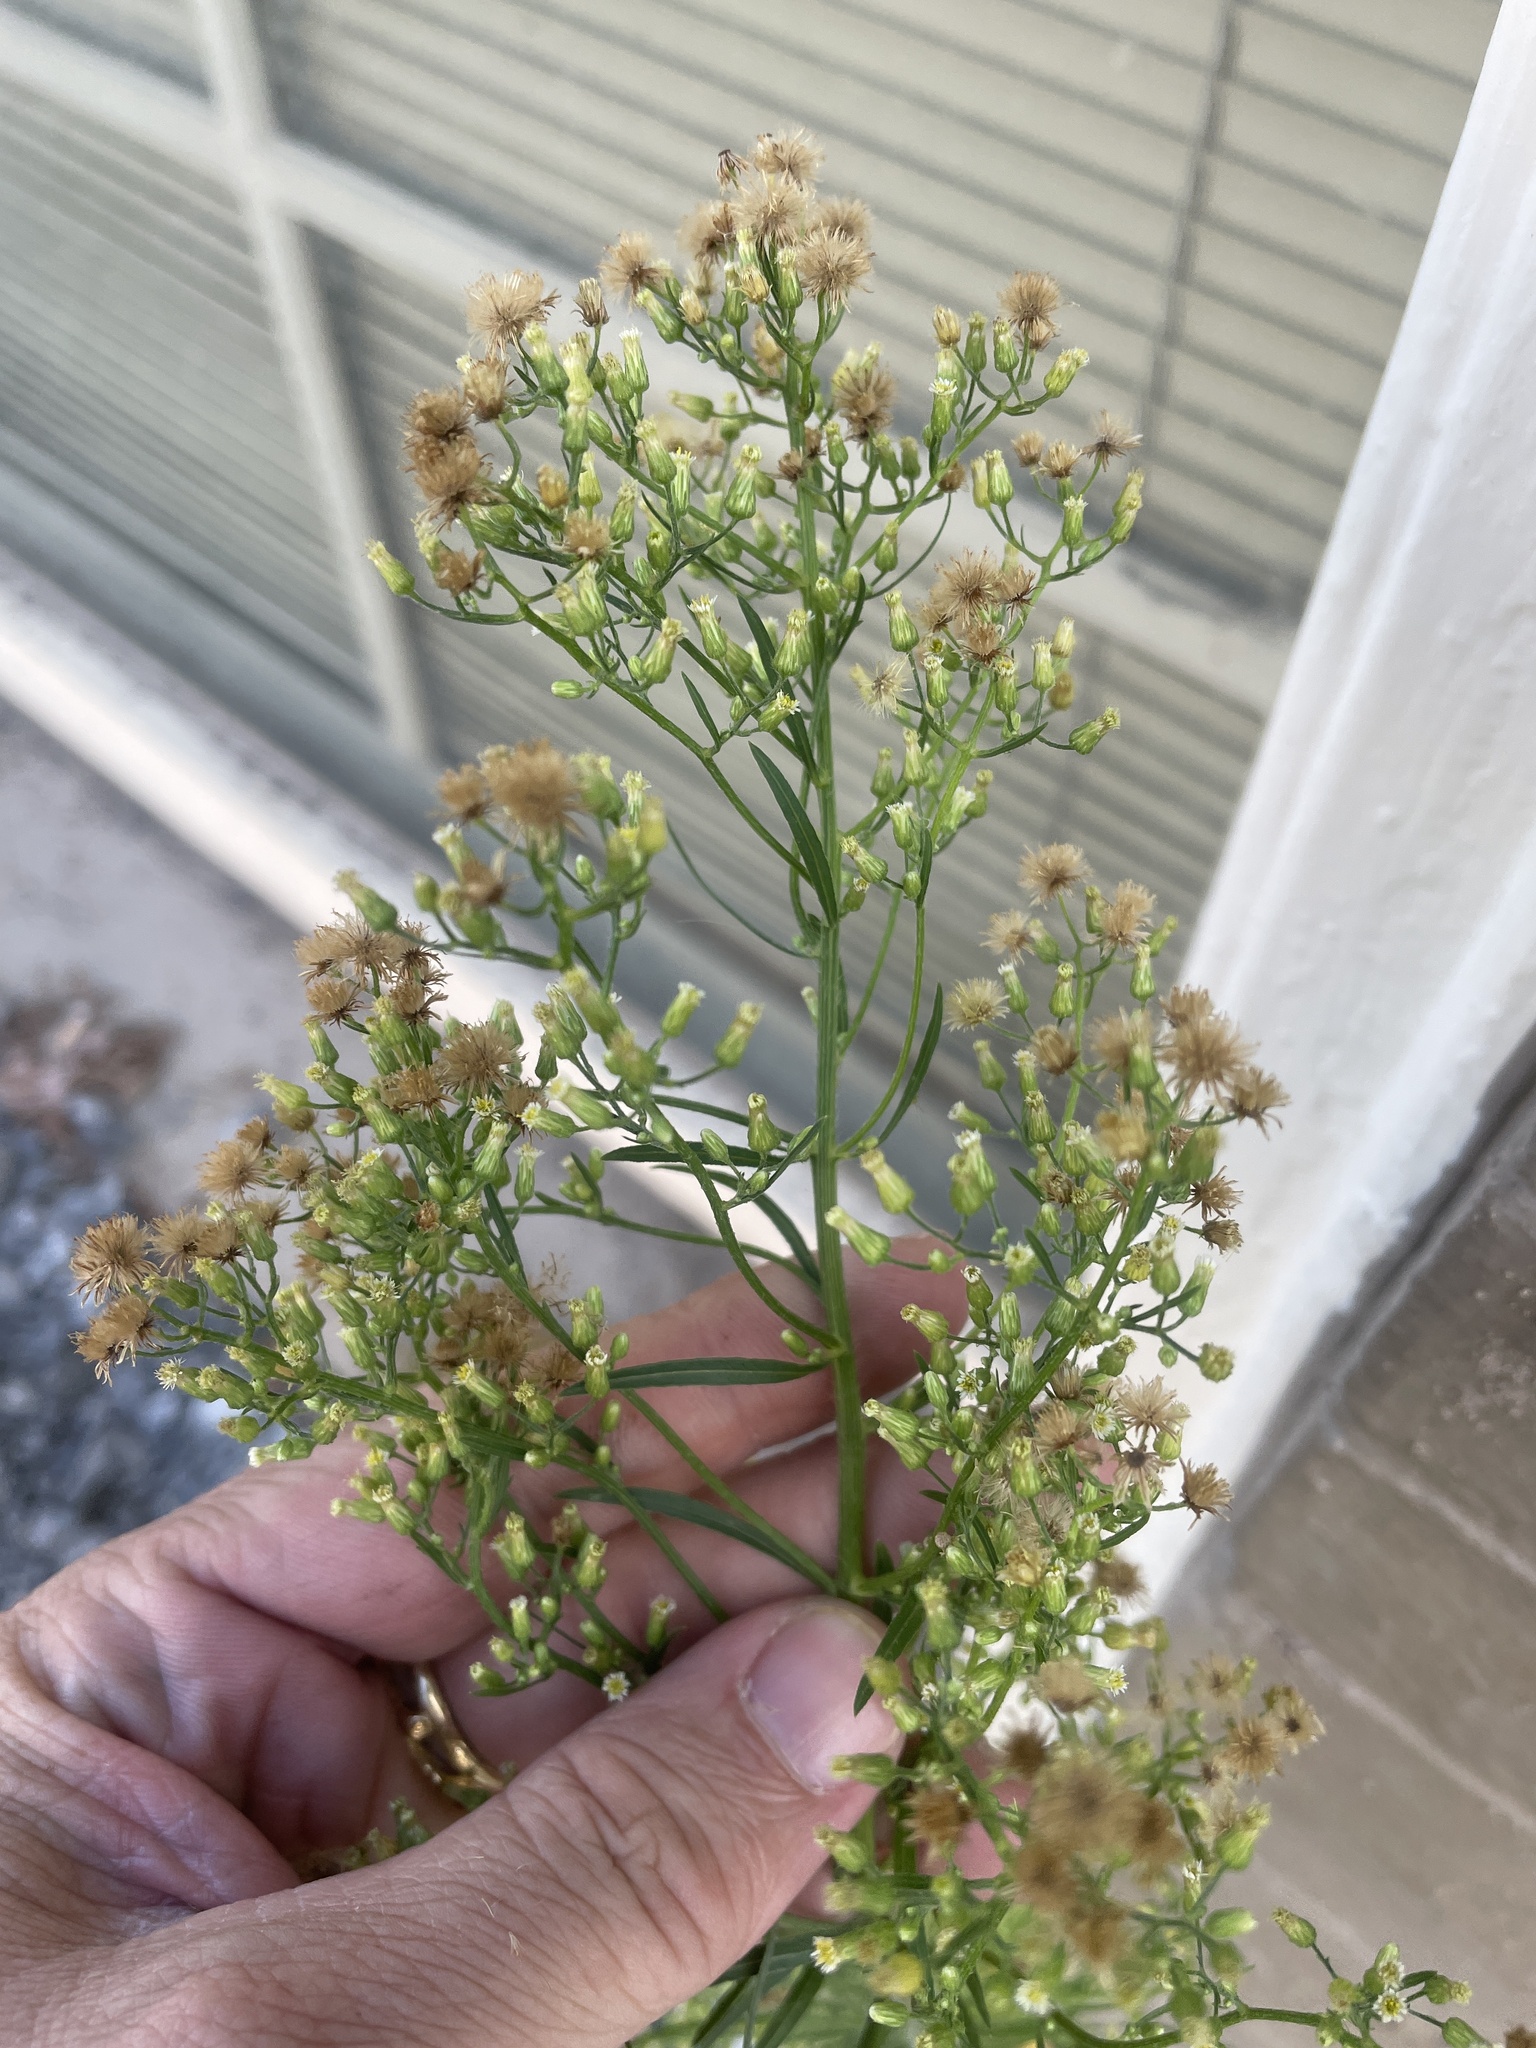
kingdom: Plantae
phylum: Tracheophyta
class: Magnoliopsida
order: Asterales
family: Asteraceae
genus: Erigeron
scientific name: Erigeron canadensis
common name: Canadian fleabane
